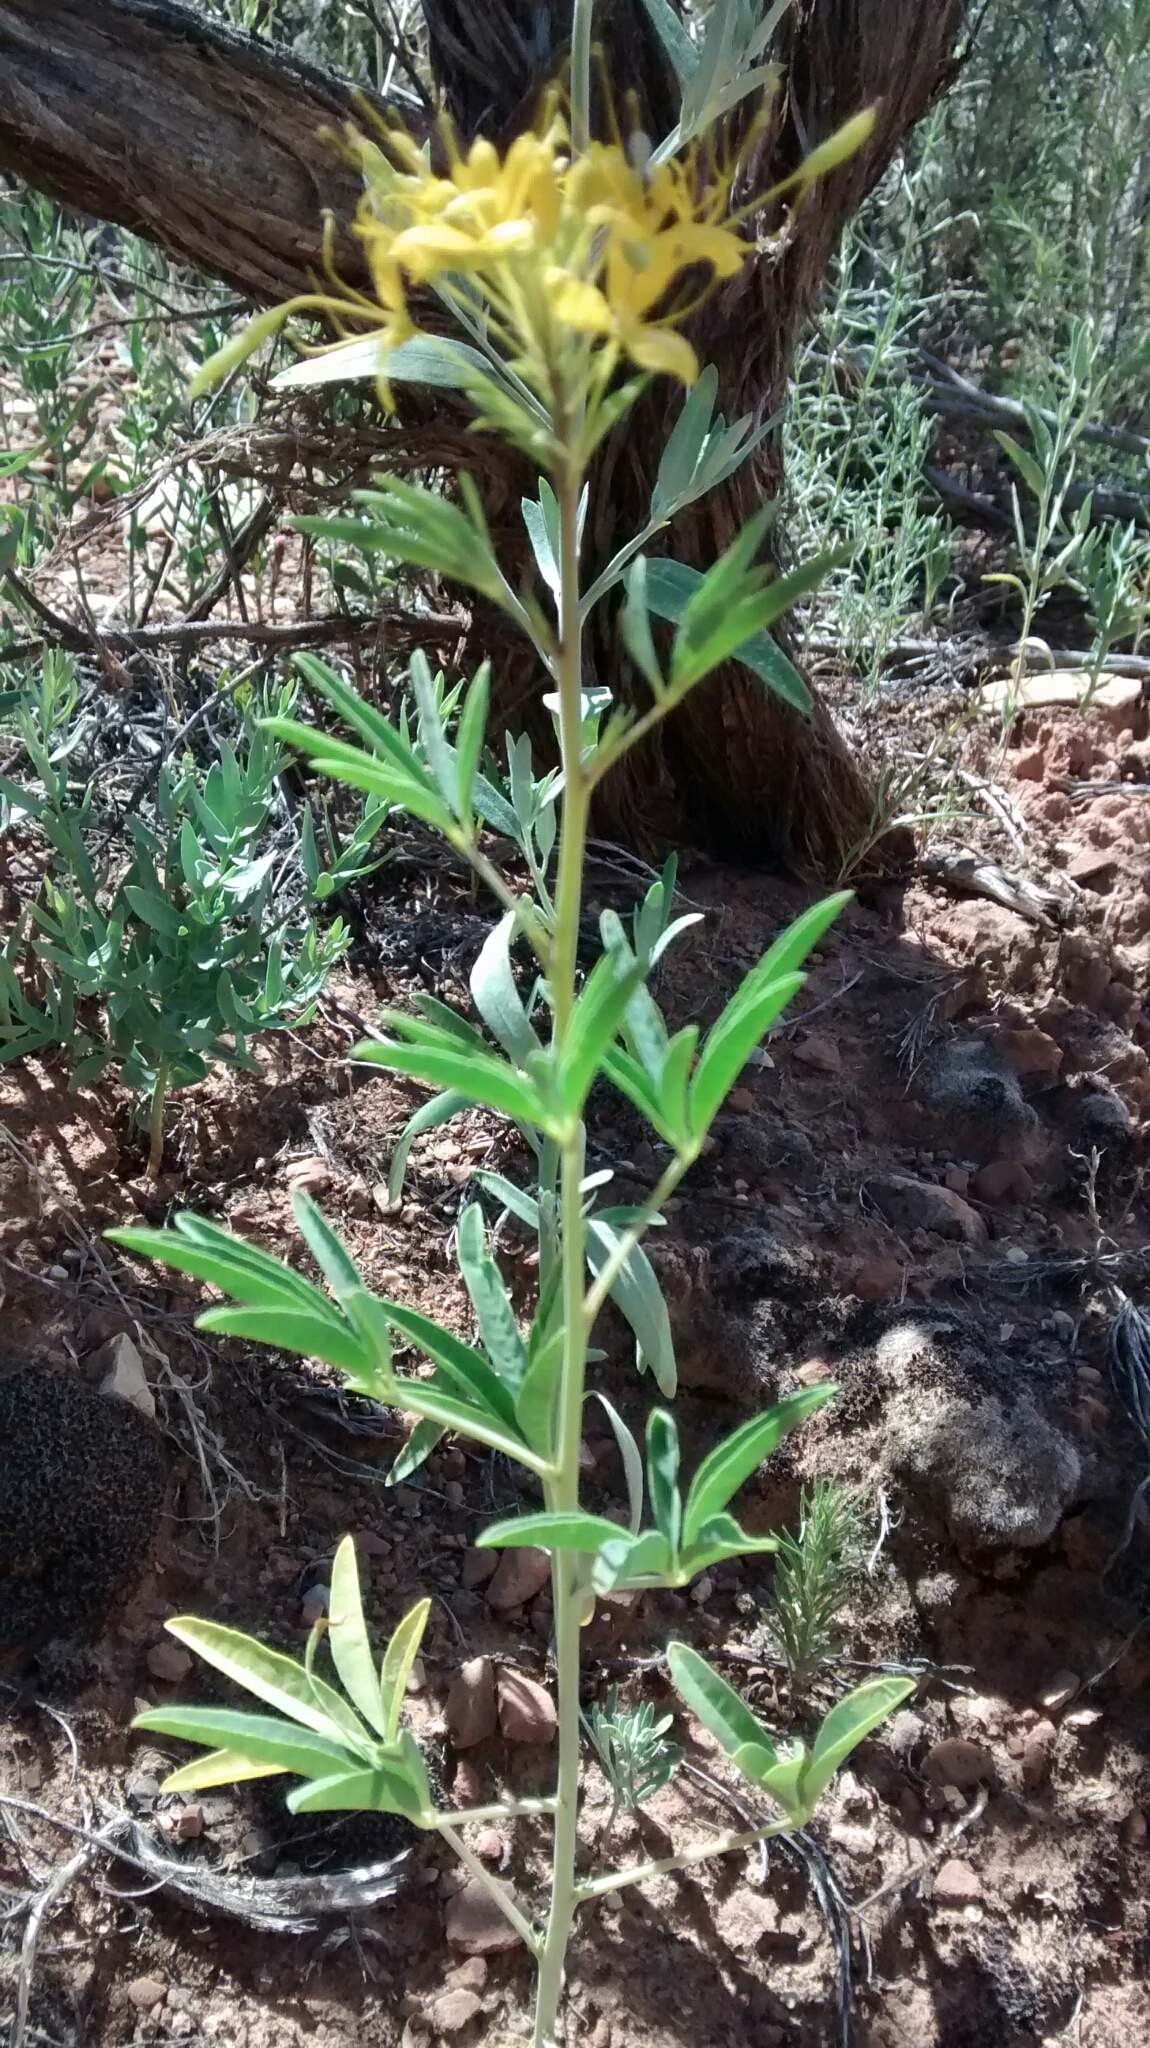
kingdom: Plantae
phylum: Tracheophyta
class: Magnoliopsida
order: Brassicales
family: Cleomaceae
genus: Cleomella
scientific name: Cleomella lutea
